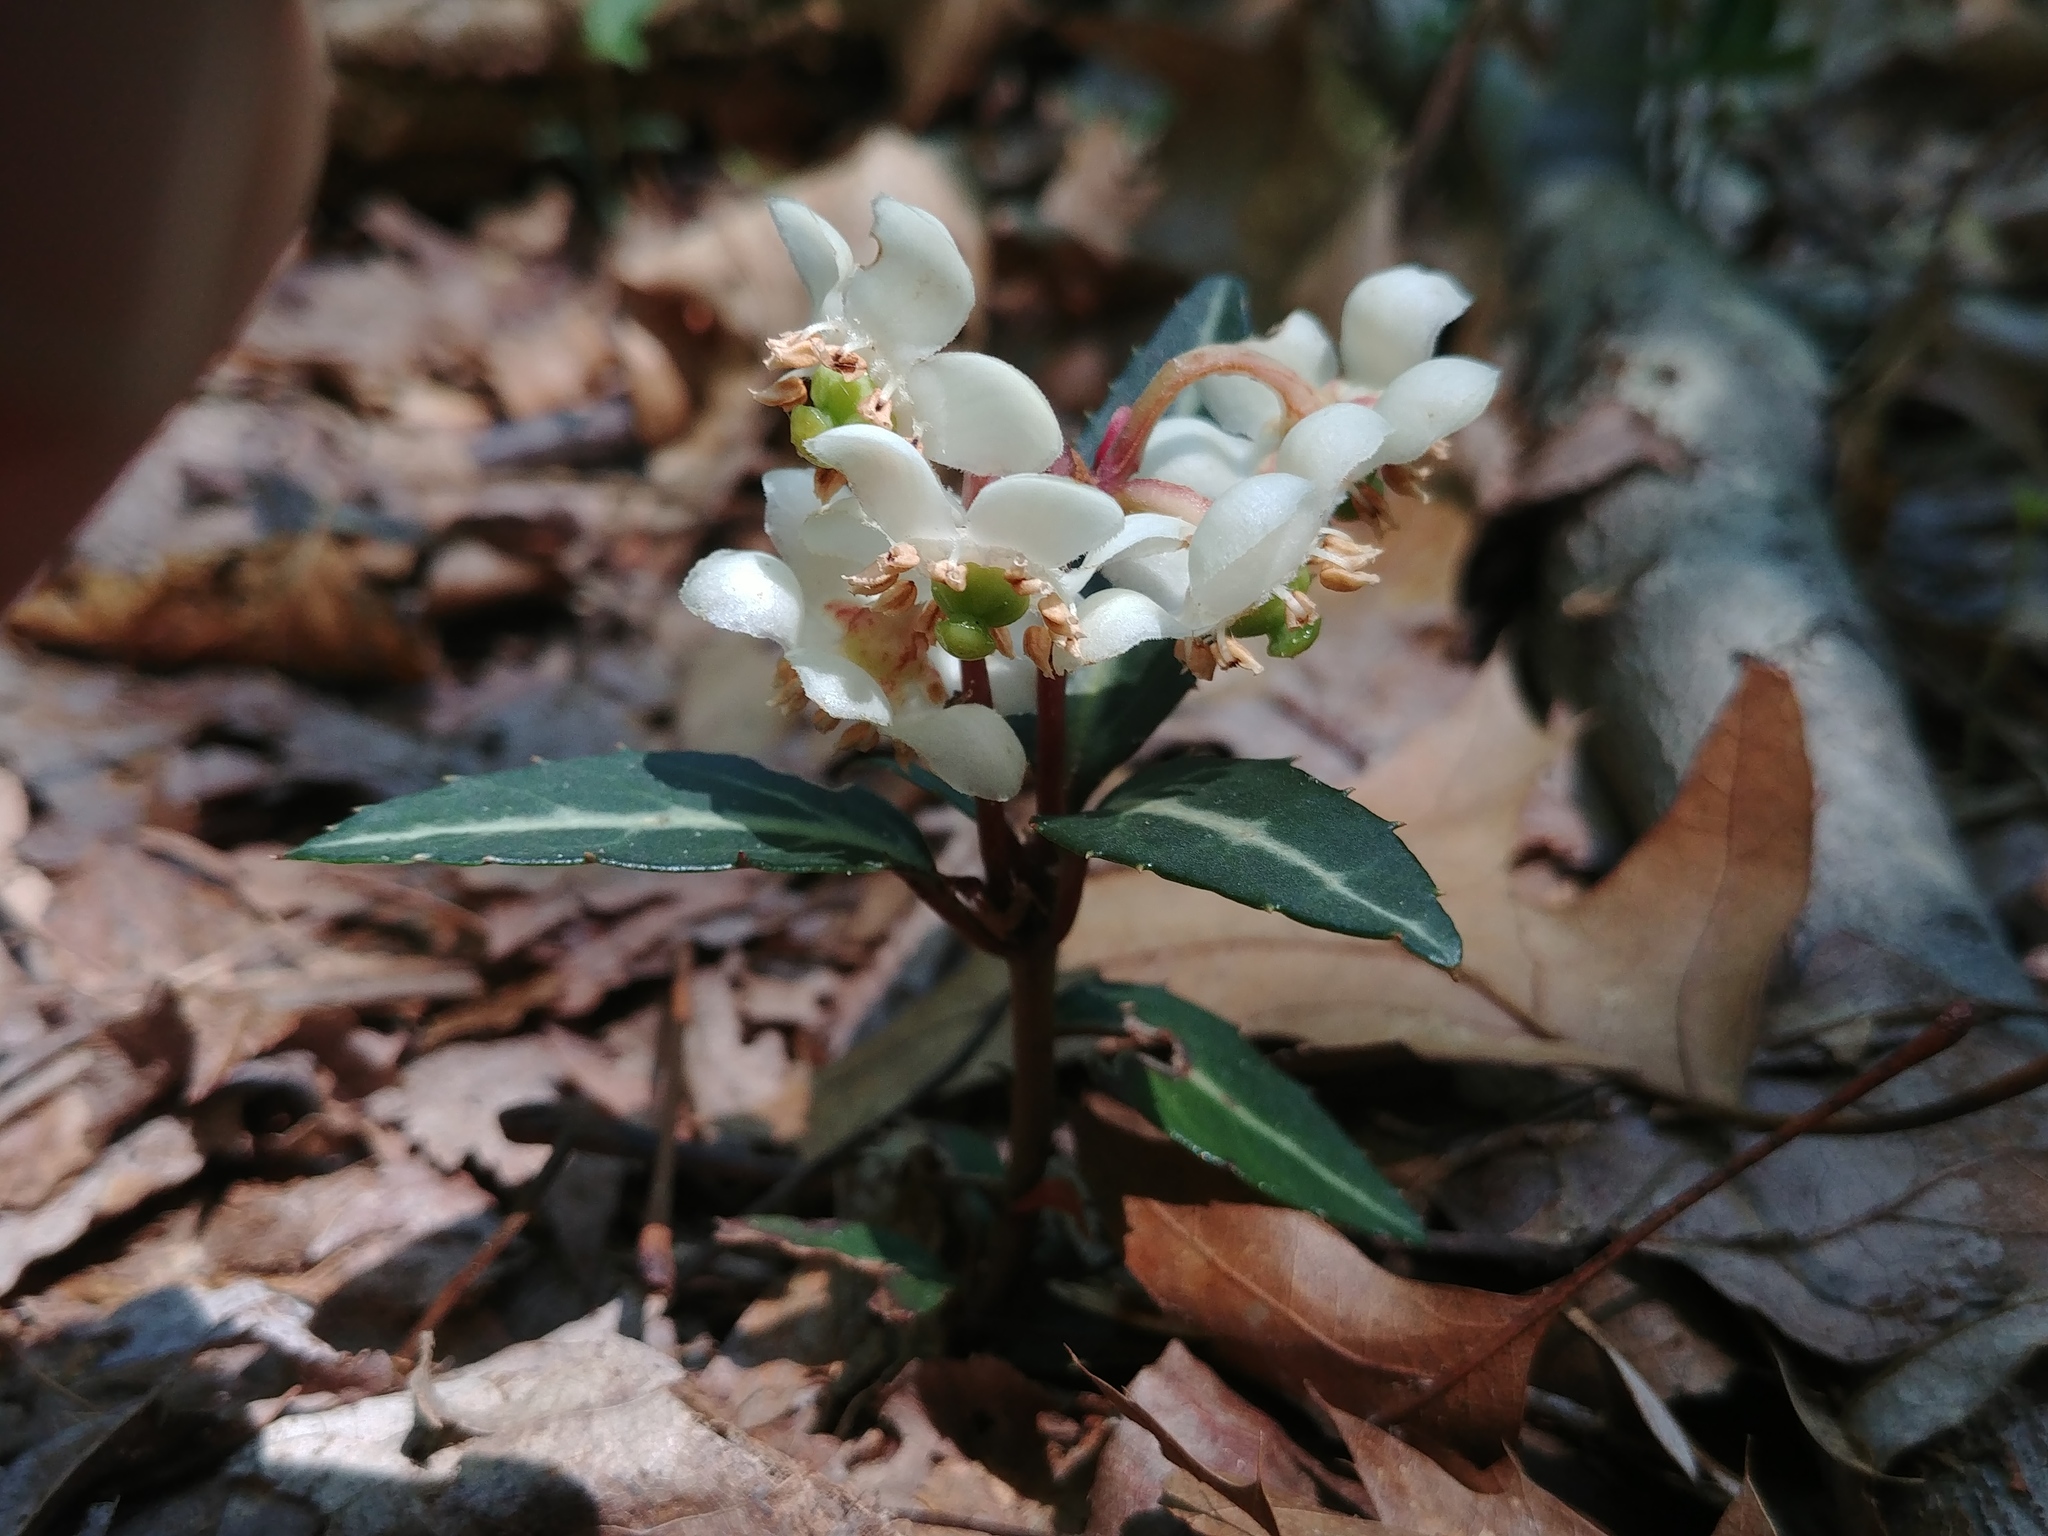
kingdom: Plantae
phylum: Tracheophyta
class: Magnoliopsida
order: Ericales
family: Ericaceae
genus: Chimaphila
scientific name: Chimaphila maculata
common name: Spotted pipsissewa
